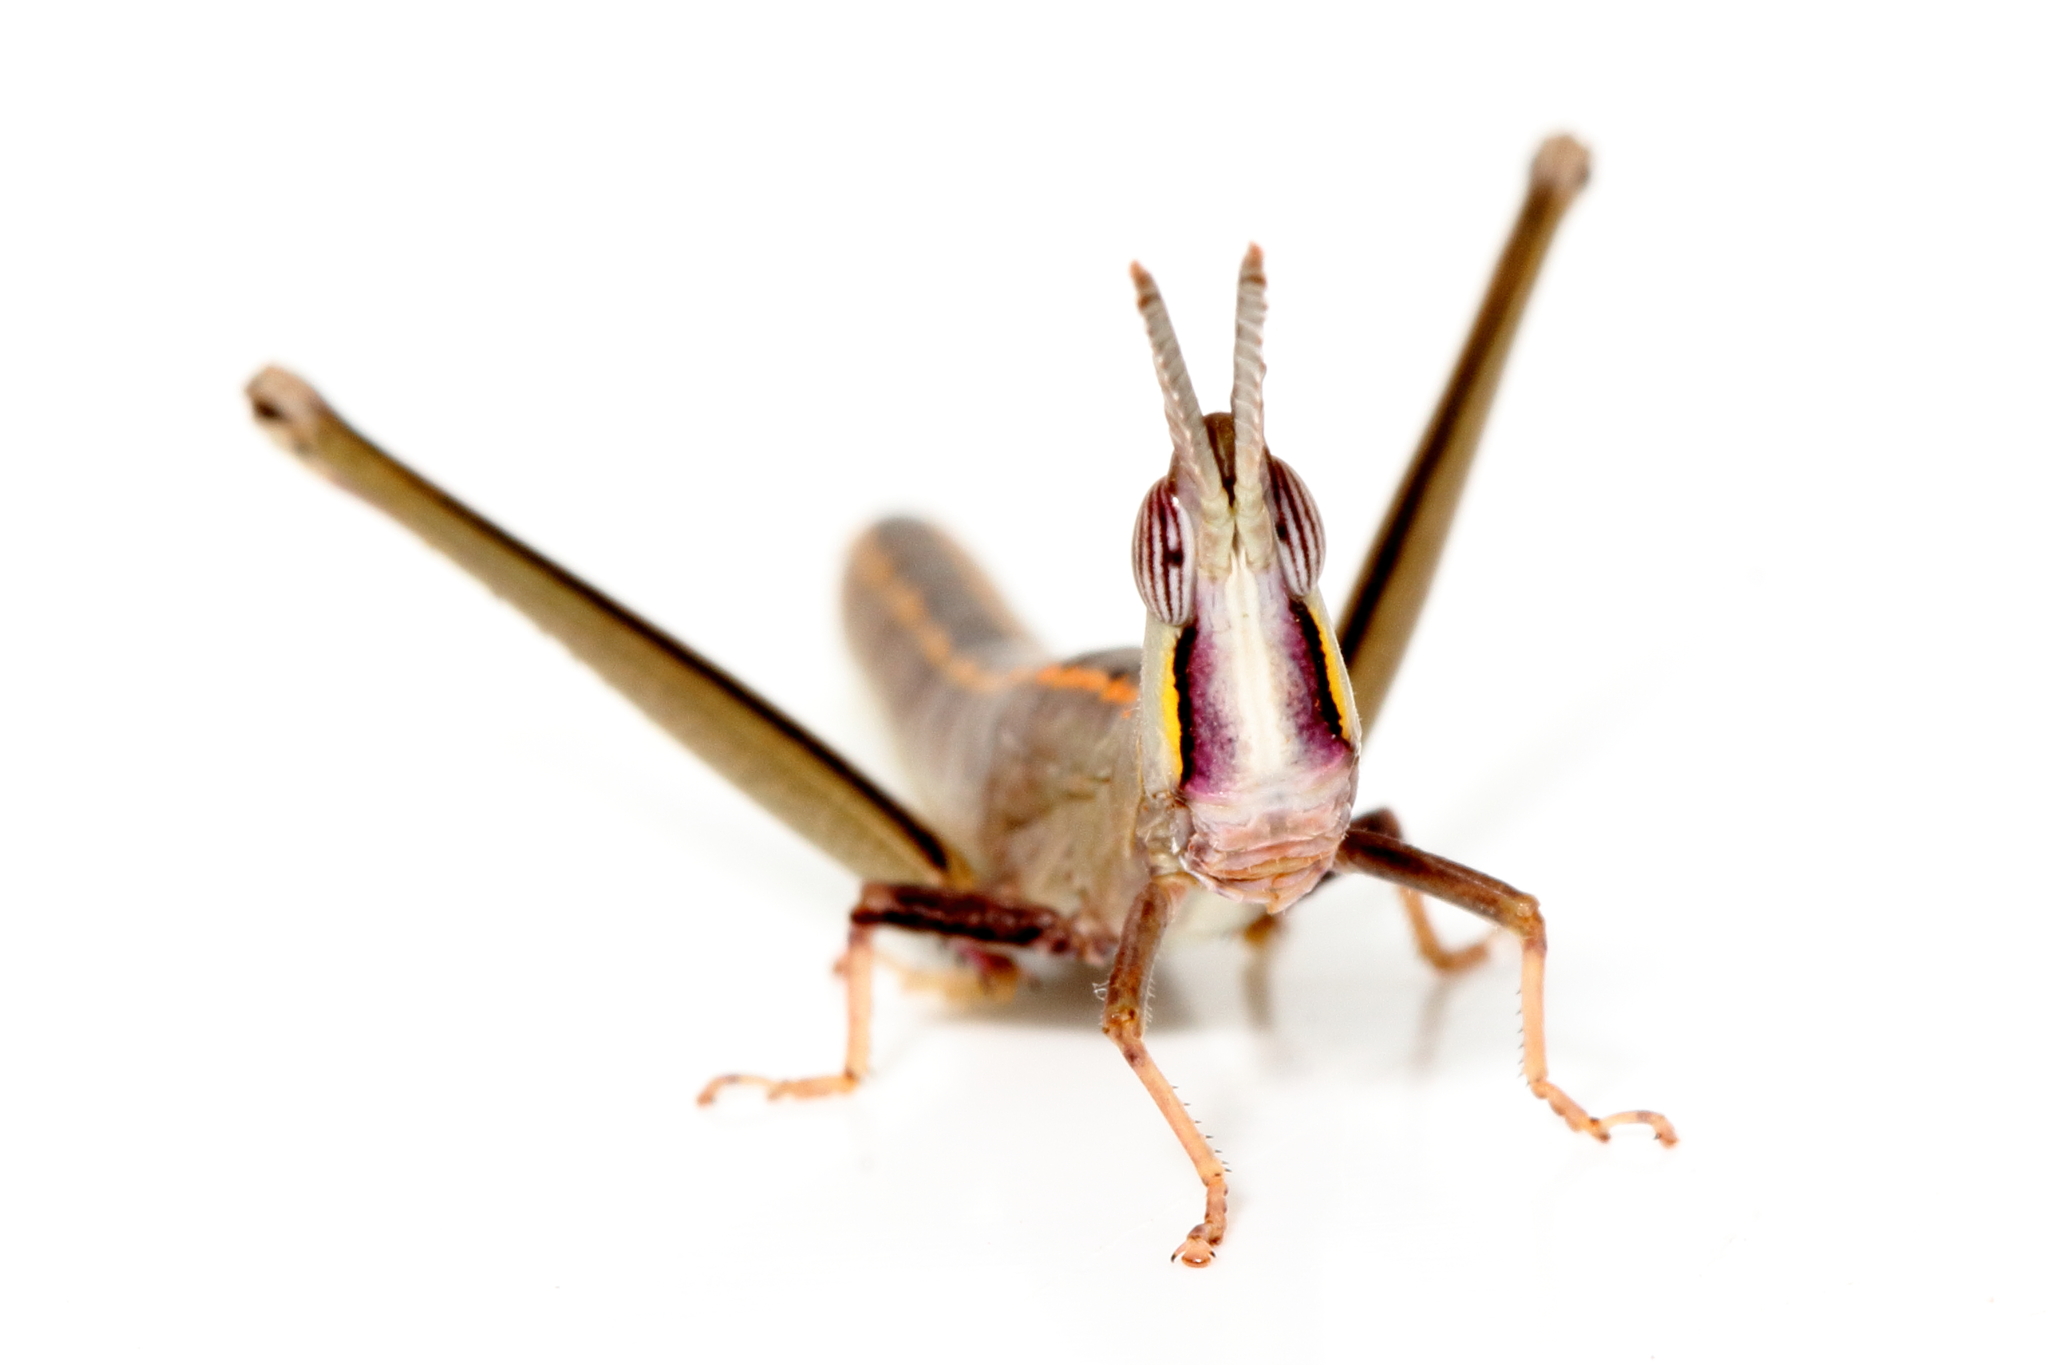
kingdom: Animalia
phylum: Arthropoda
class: Insecta
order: Orthoptera
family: Morabidae
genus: Warramaba
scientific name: Warramaba picta
